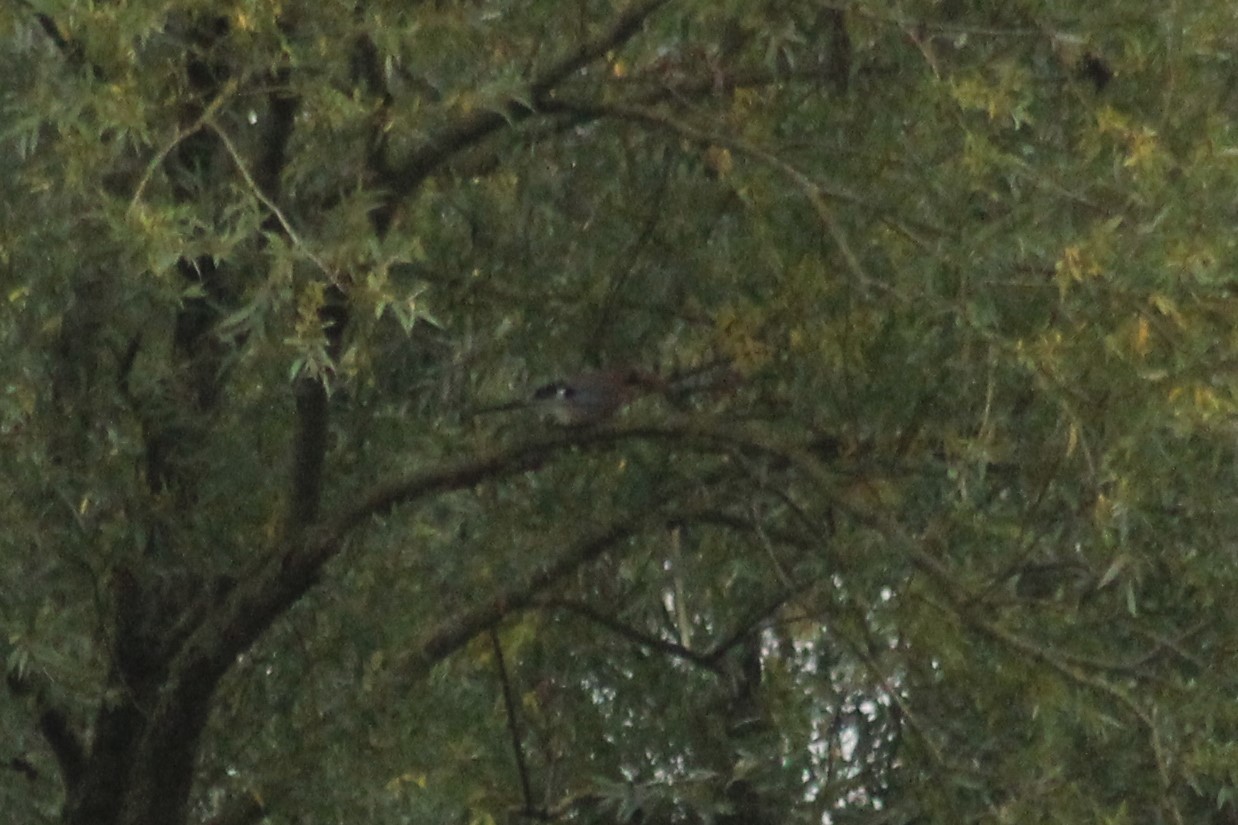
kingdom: Animalia
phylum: Chordata
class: Aves
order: Passeriformes
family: Corvidae
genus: Garrulus
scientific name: Garrulus glandarius
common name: Eurasian jay
